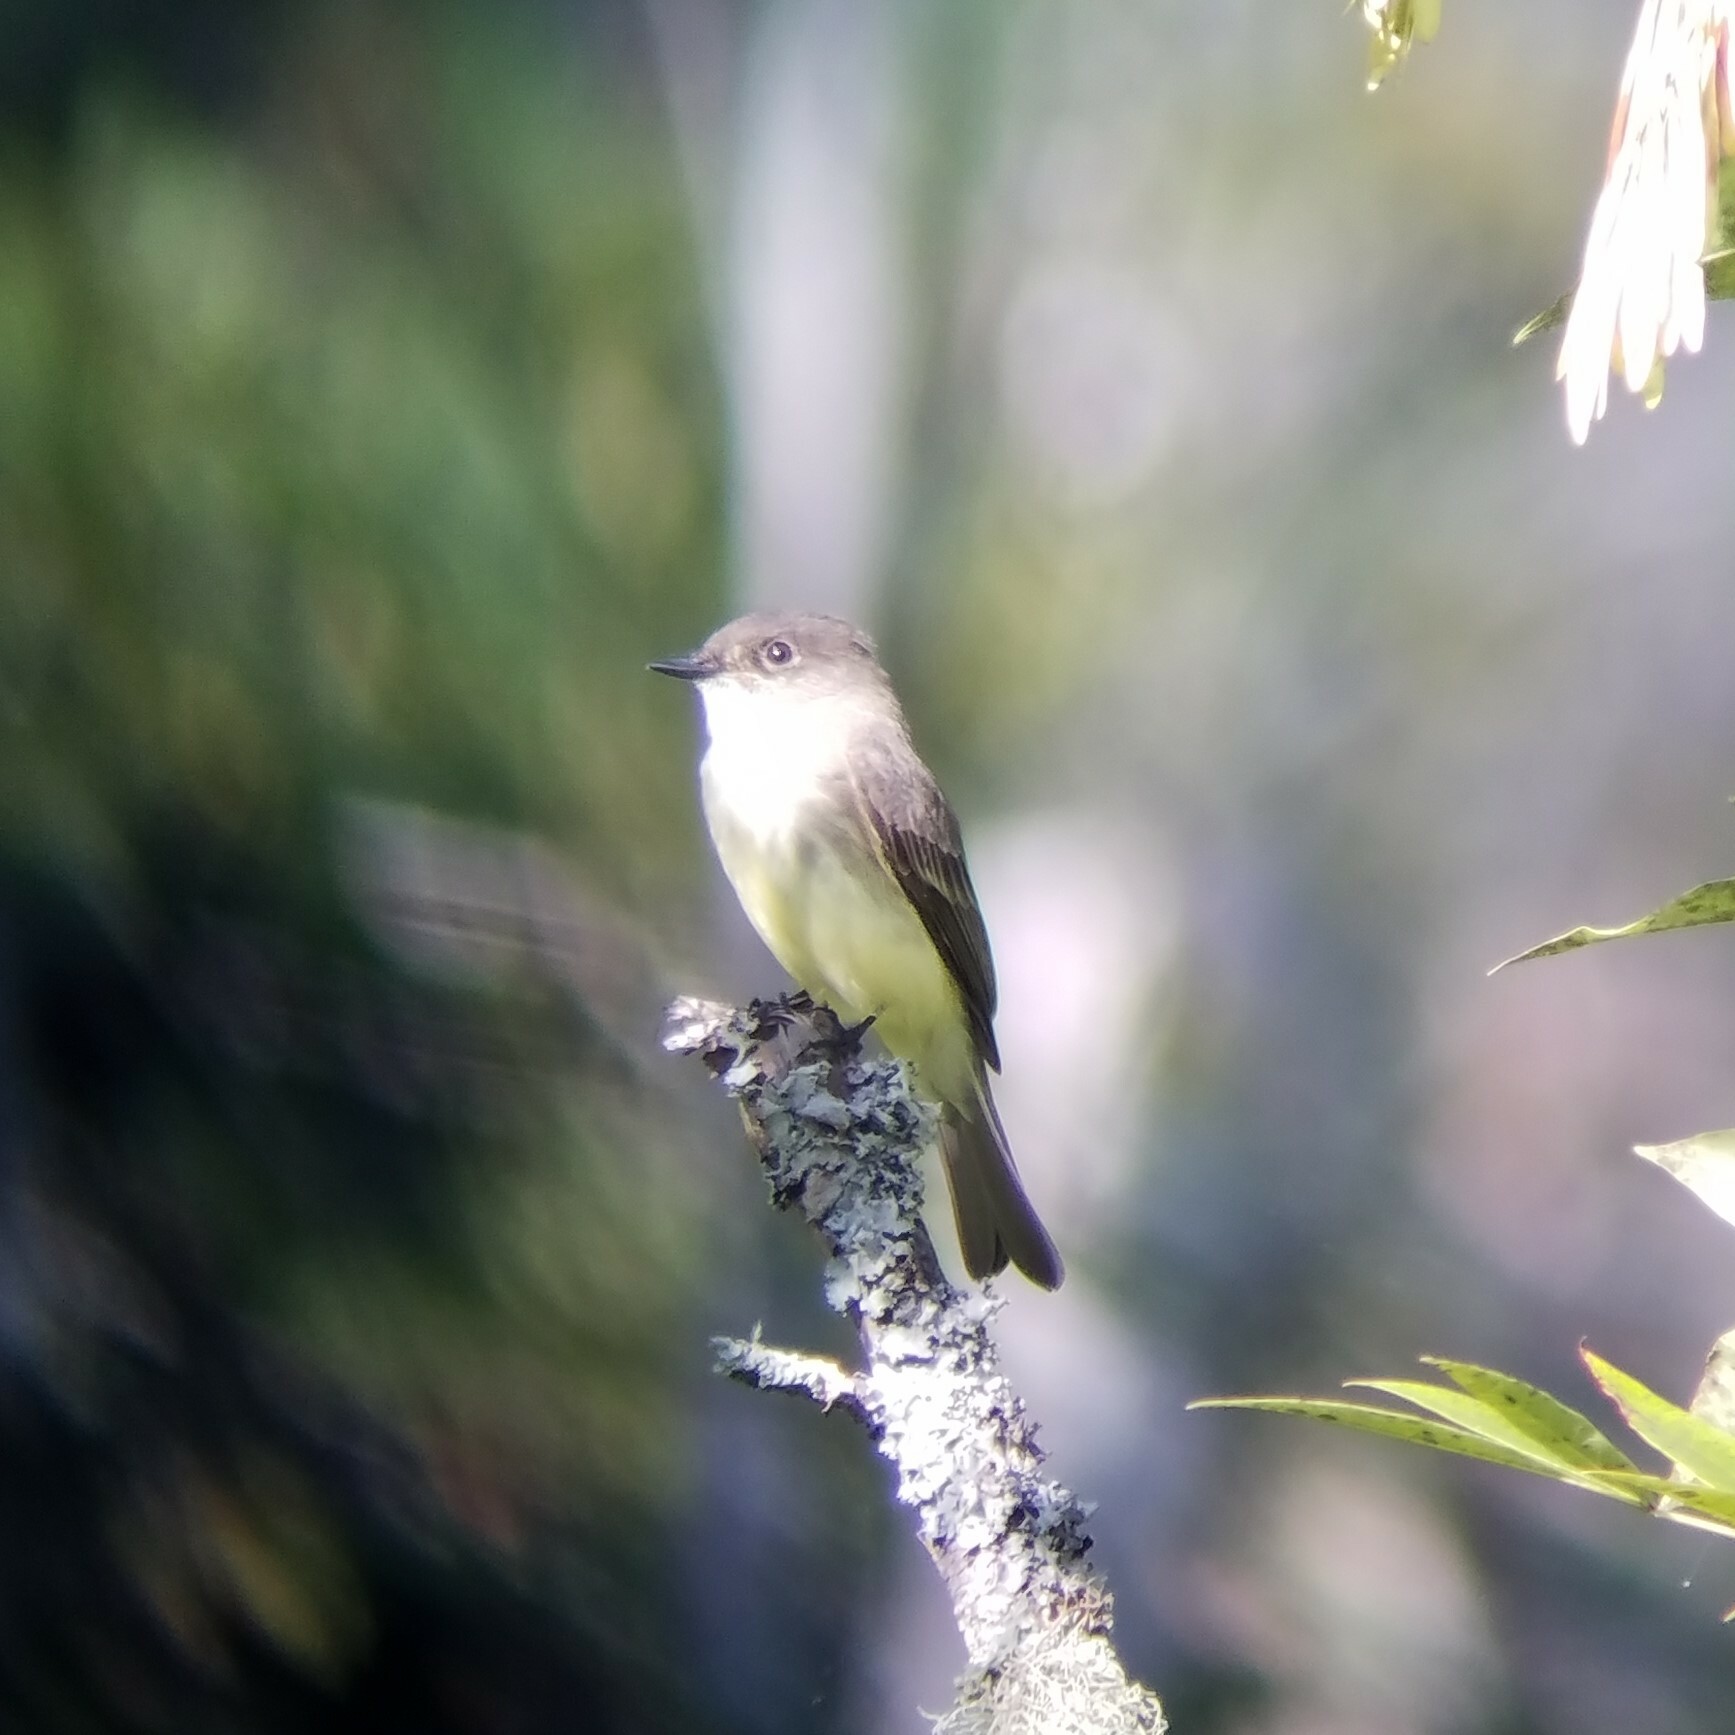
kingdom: Animalia
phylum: Chordata
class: Aves
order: Passeriformes
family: Tyrannidae
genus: Sayornis
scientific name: Sayornis phoebe
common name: Eastern phoebe
